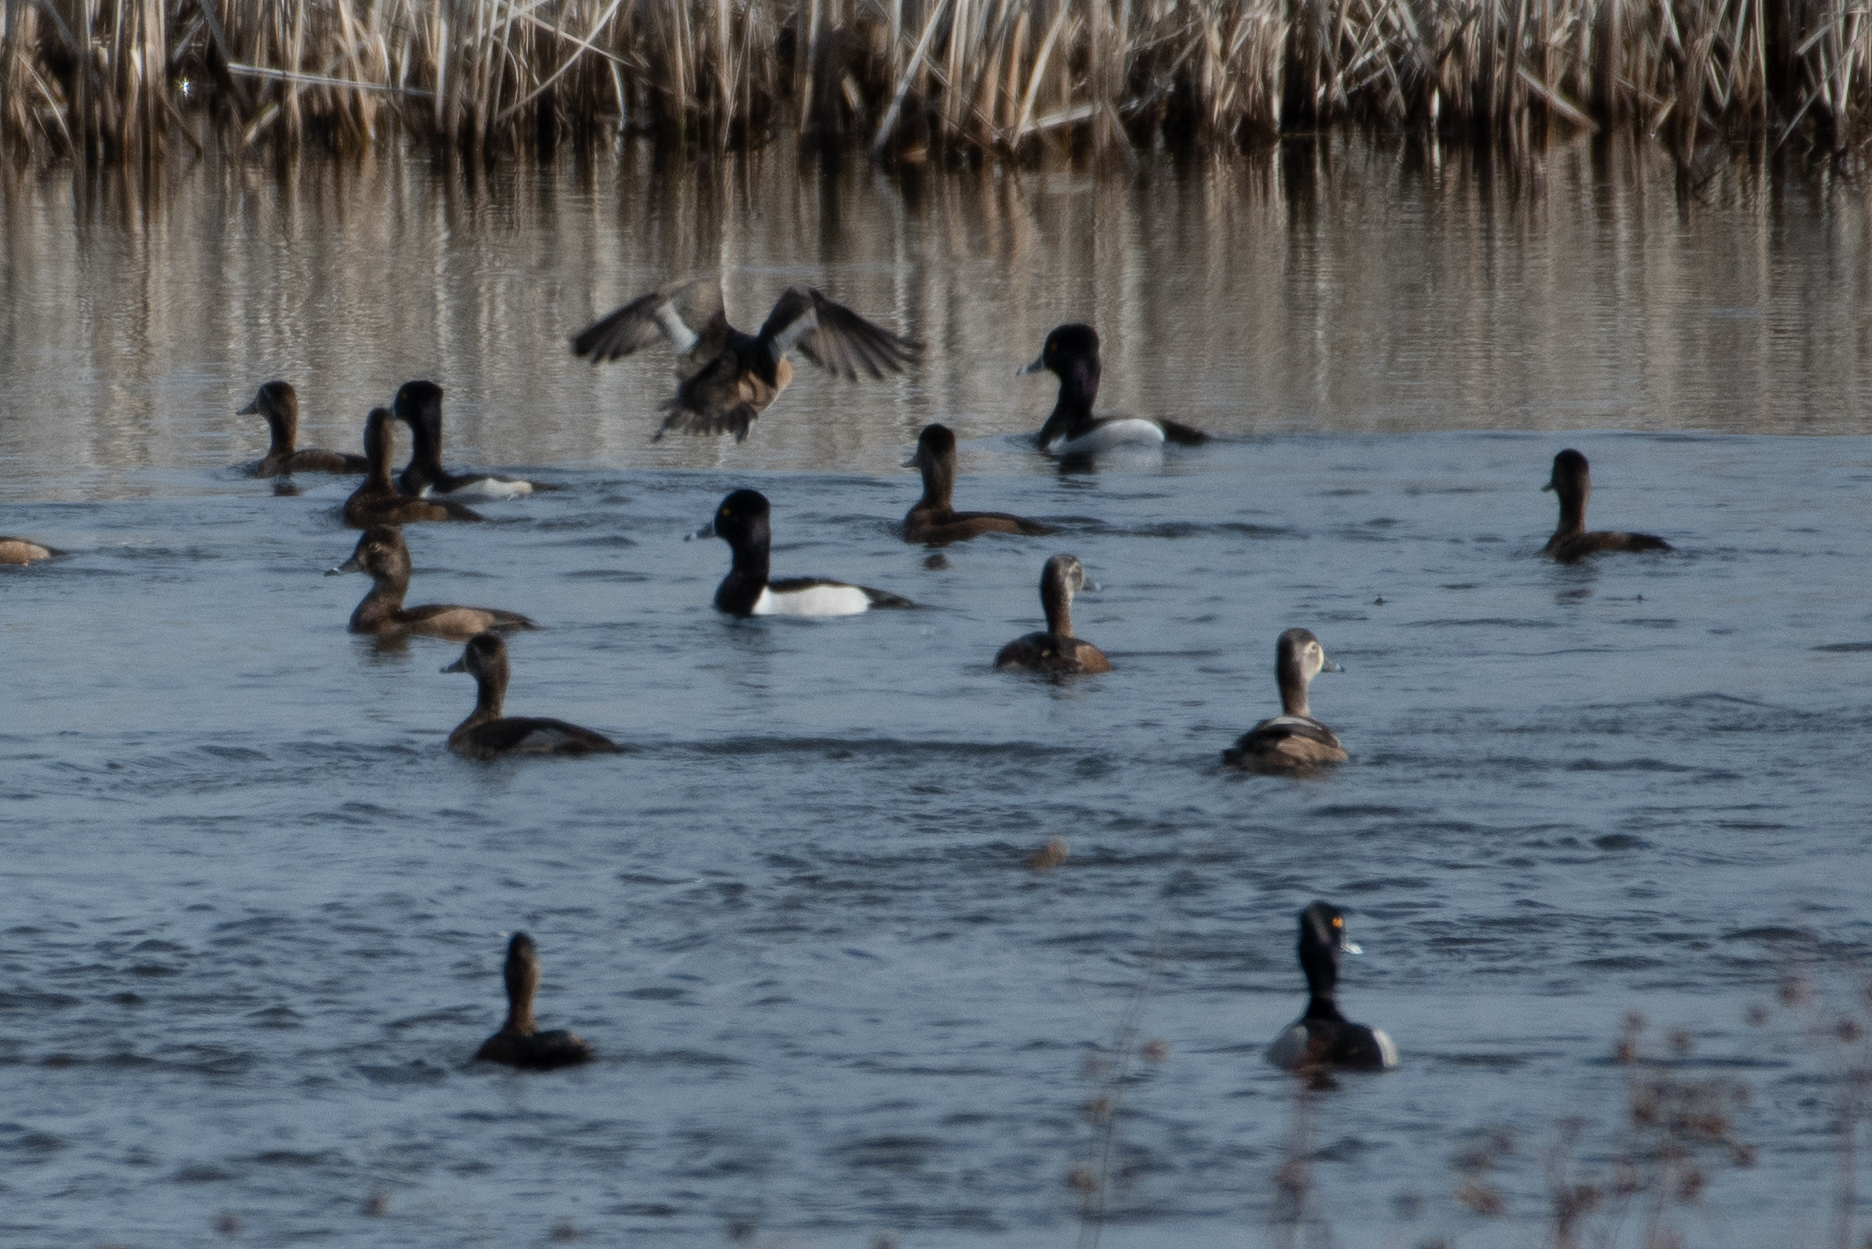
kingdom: Animalia
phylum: Chordata
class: Aves
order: Anseriformes
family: Anatidae
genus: Aythya
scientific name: Aythya collaris
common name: Ring-necked duck
